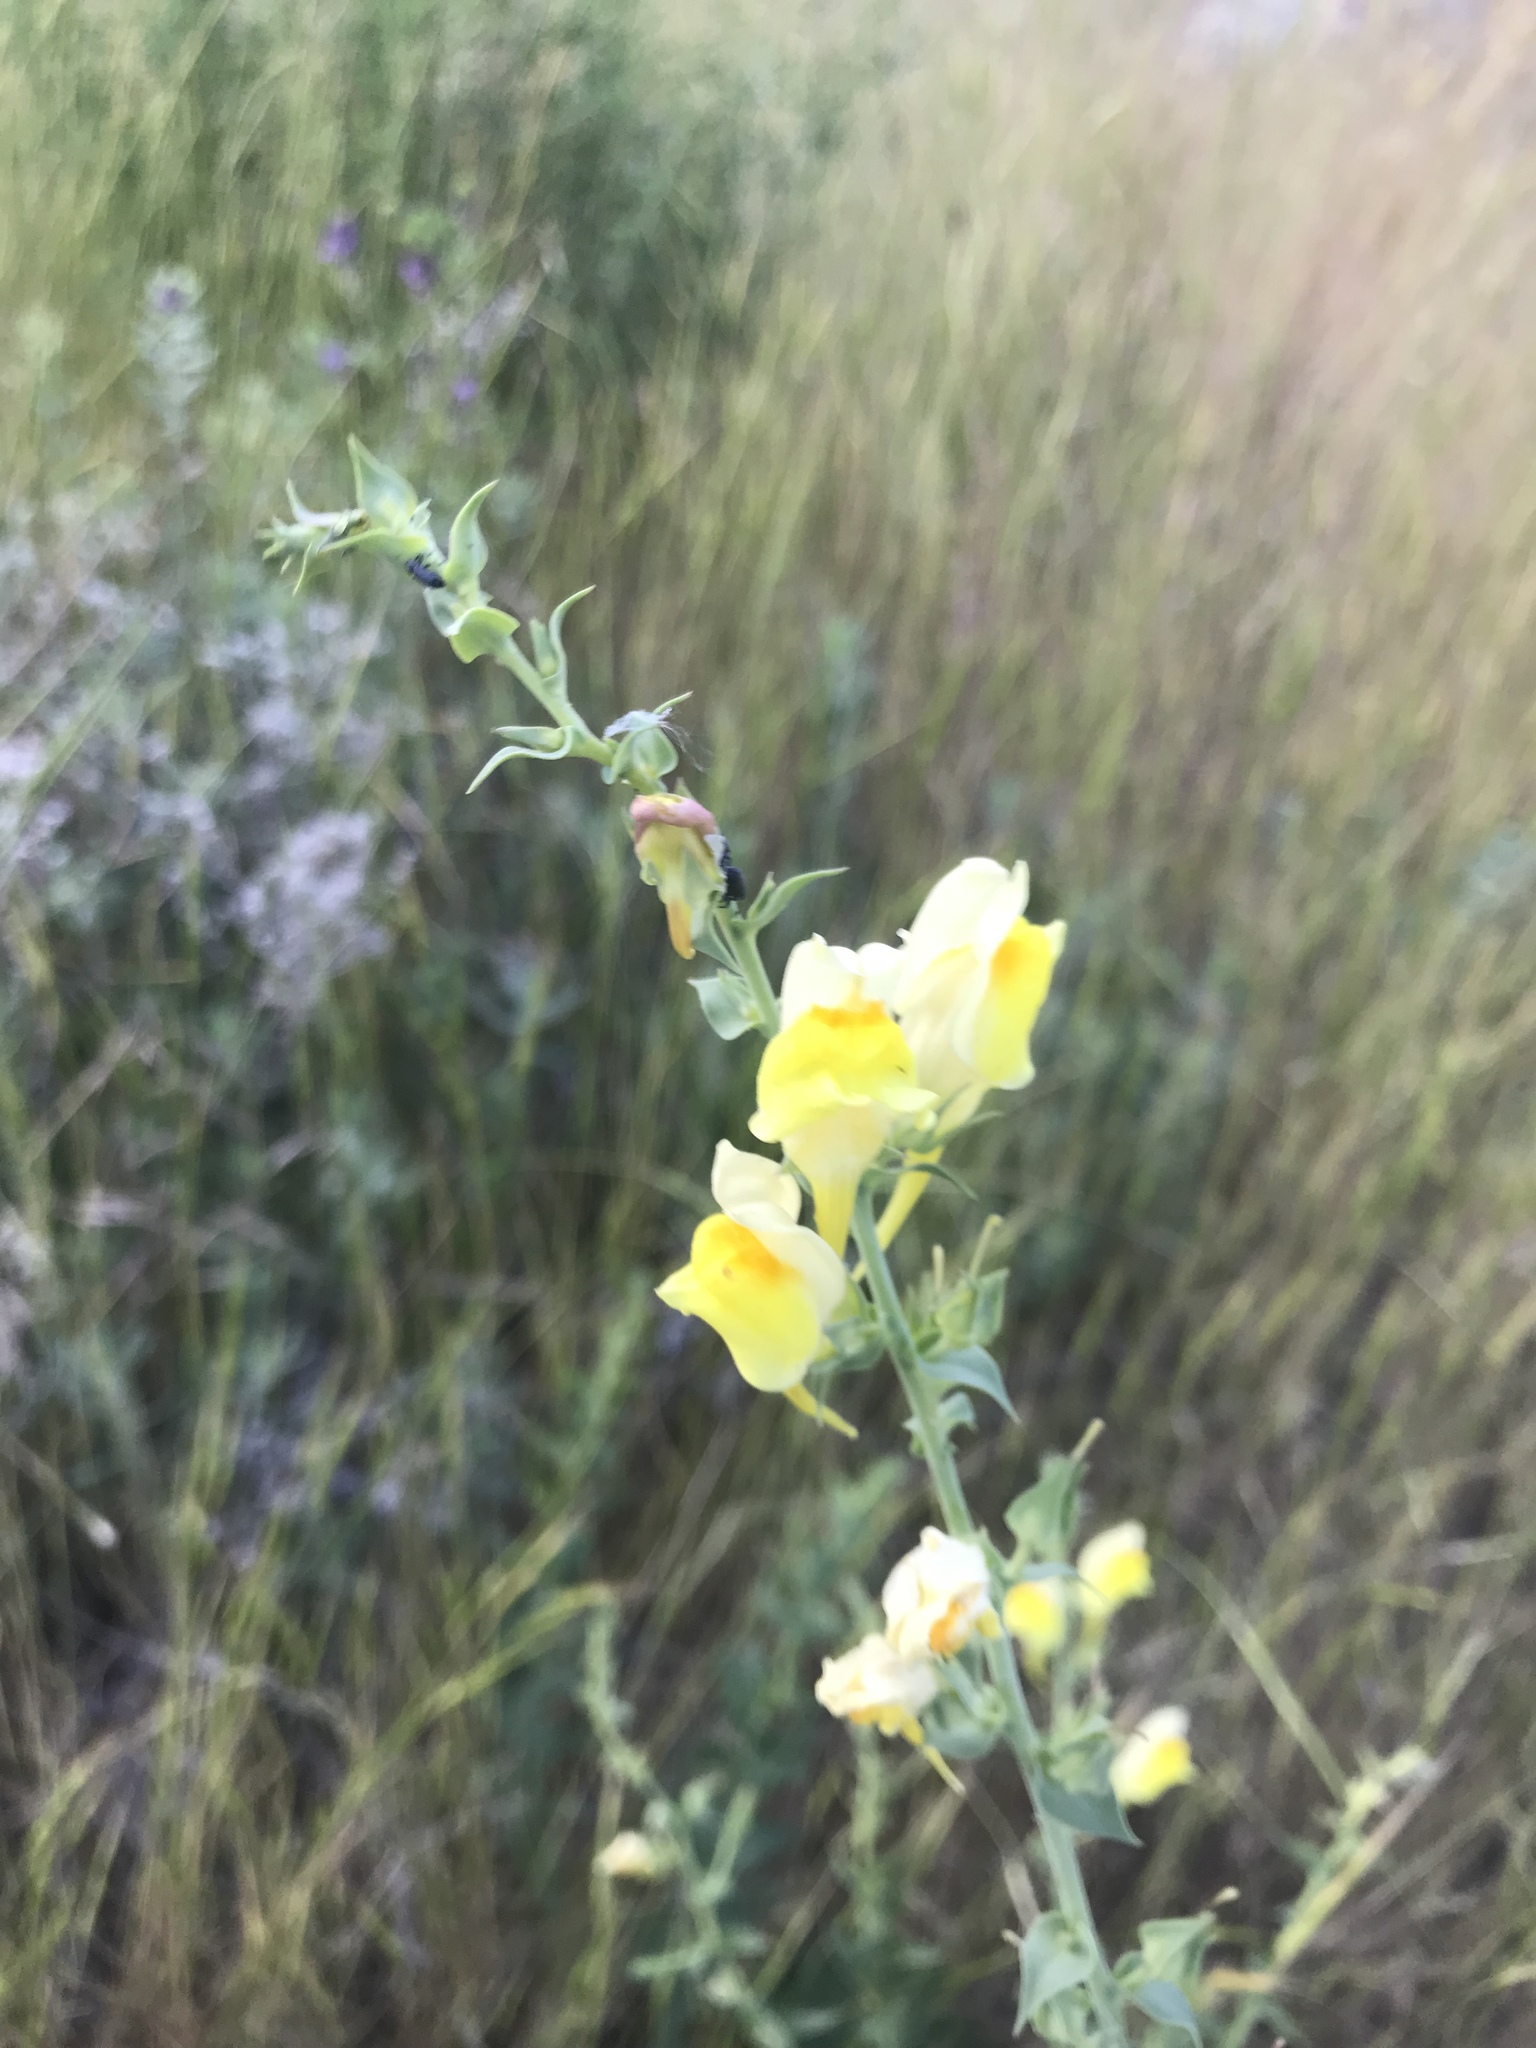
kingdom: Plantae
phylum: Tracheophyta
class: Magnoliopsida
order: Lamiales
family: Plantaginaceae
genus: Linaria
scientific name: Linaria dalmatica
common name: Dalmatian toadflax
